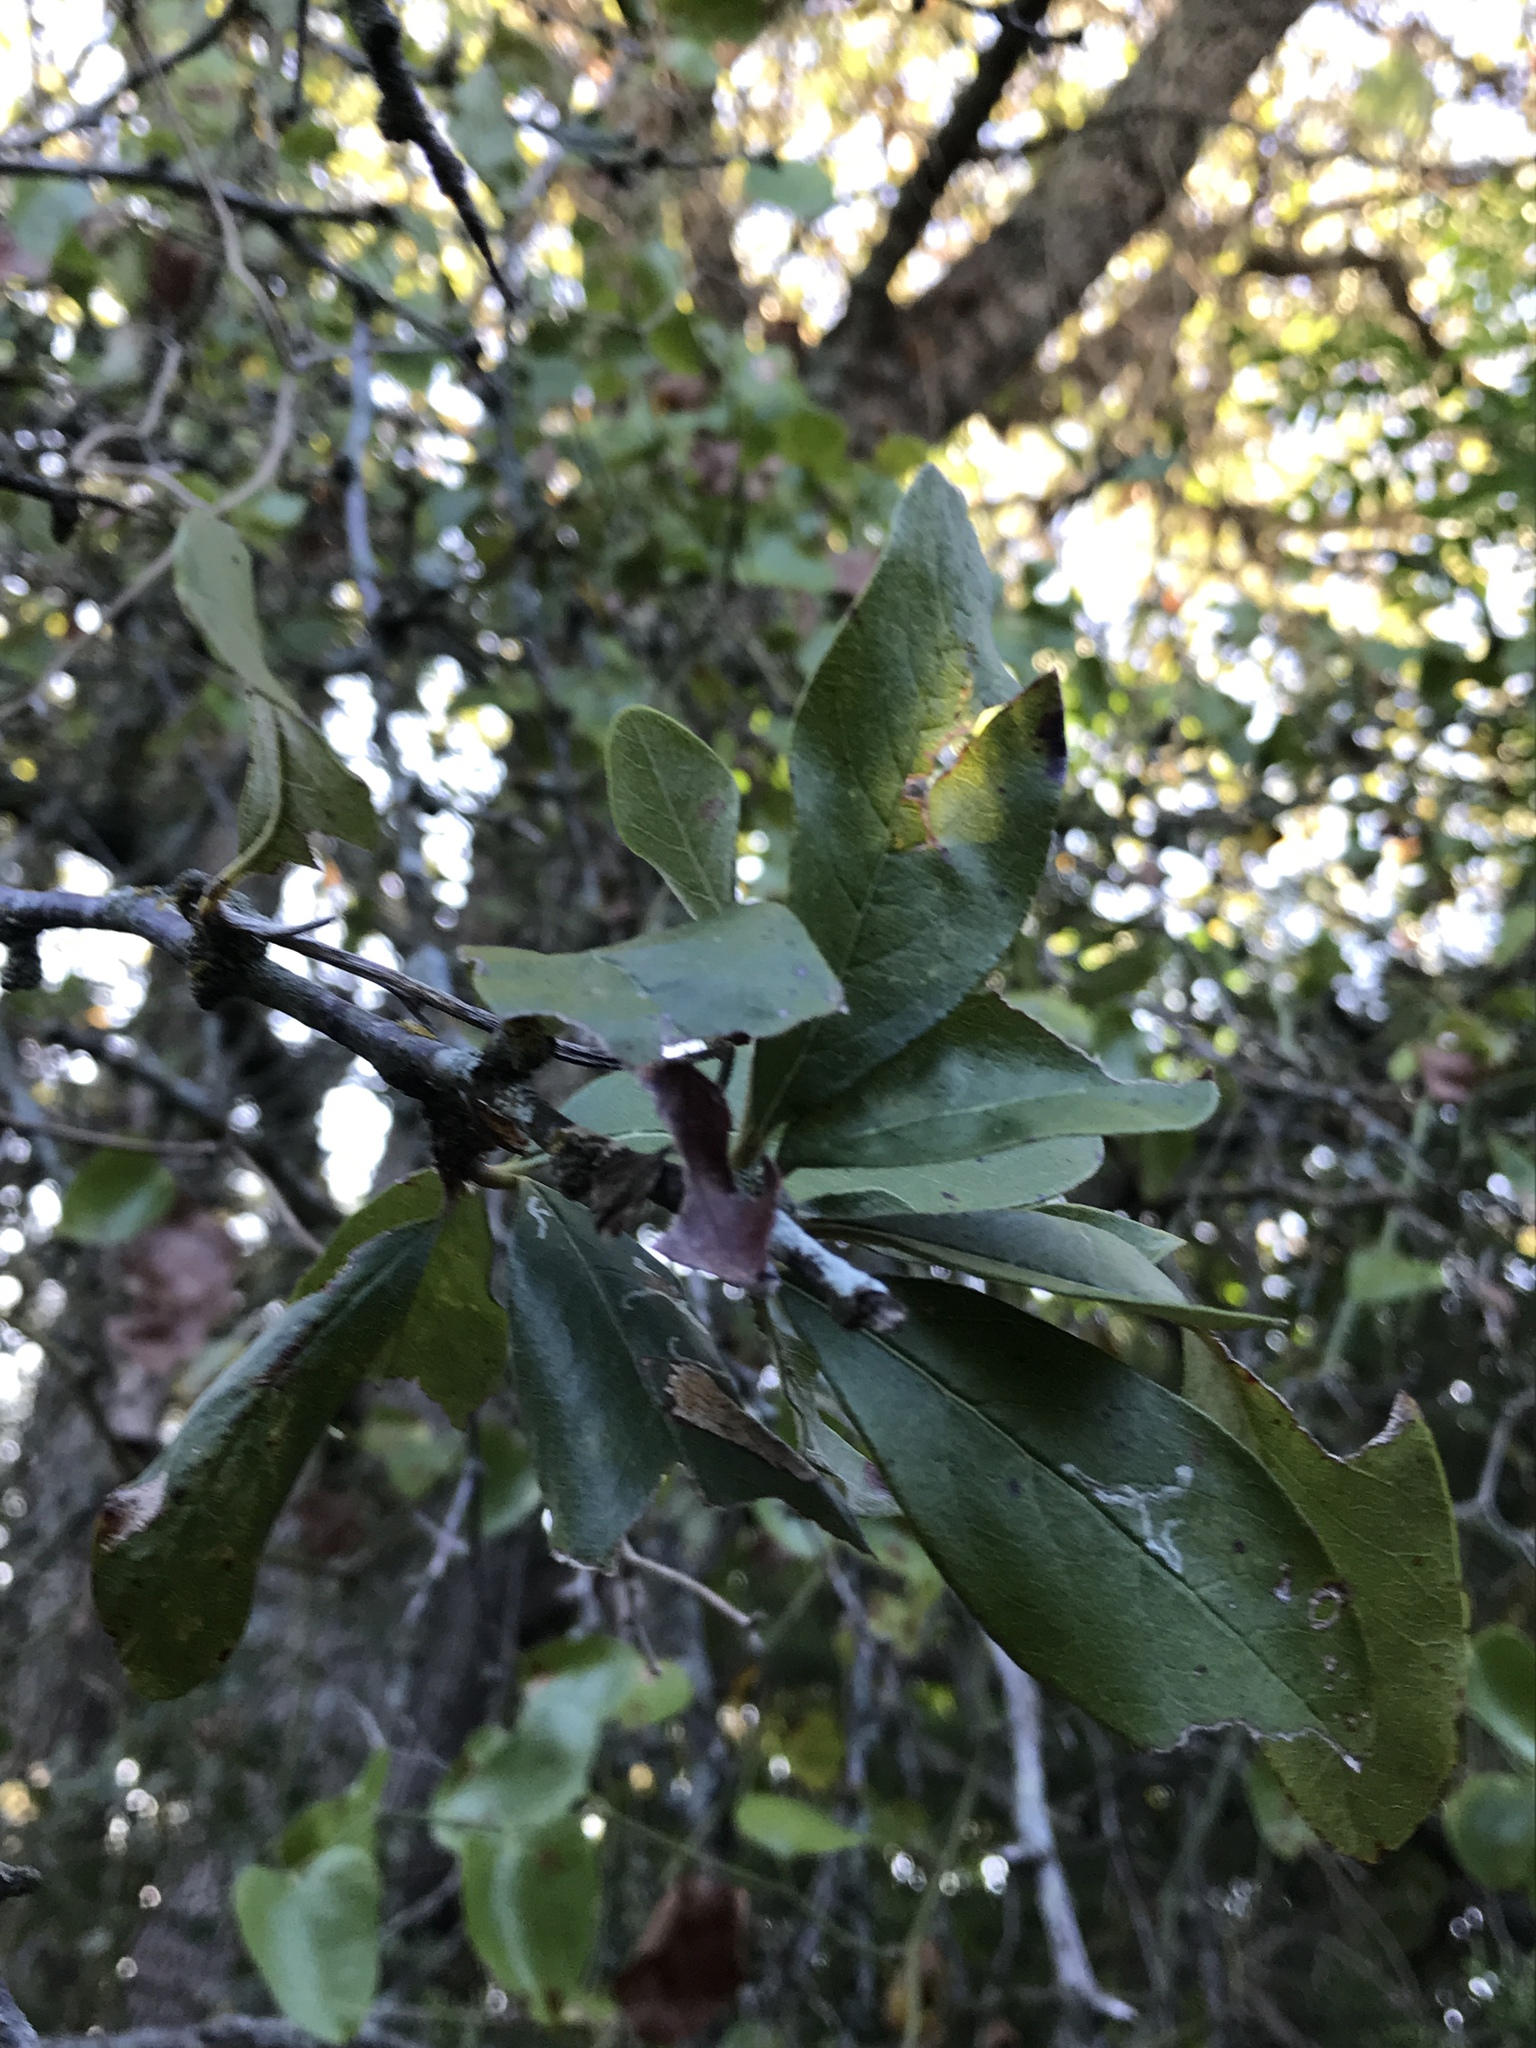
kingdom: Plantae
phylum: Tracheophyta
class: Magnoliopsida
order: Ericales
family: Sapotaceae
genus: Sideroxylon
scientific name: Sideroxylon lanuginosum
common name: Chittamwood
